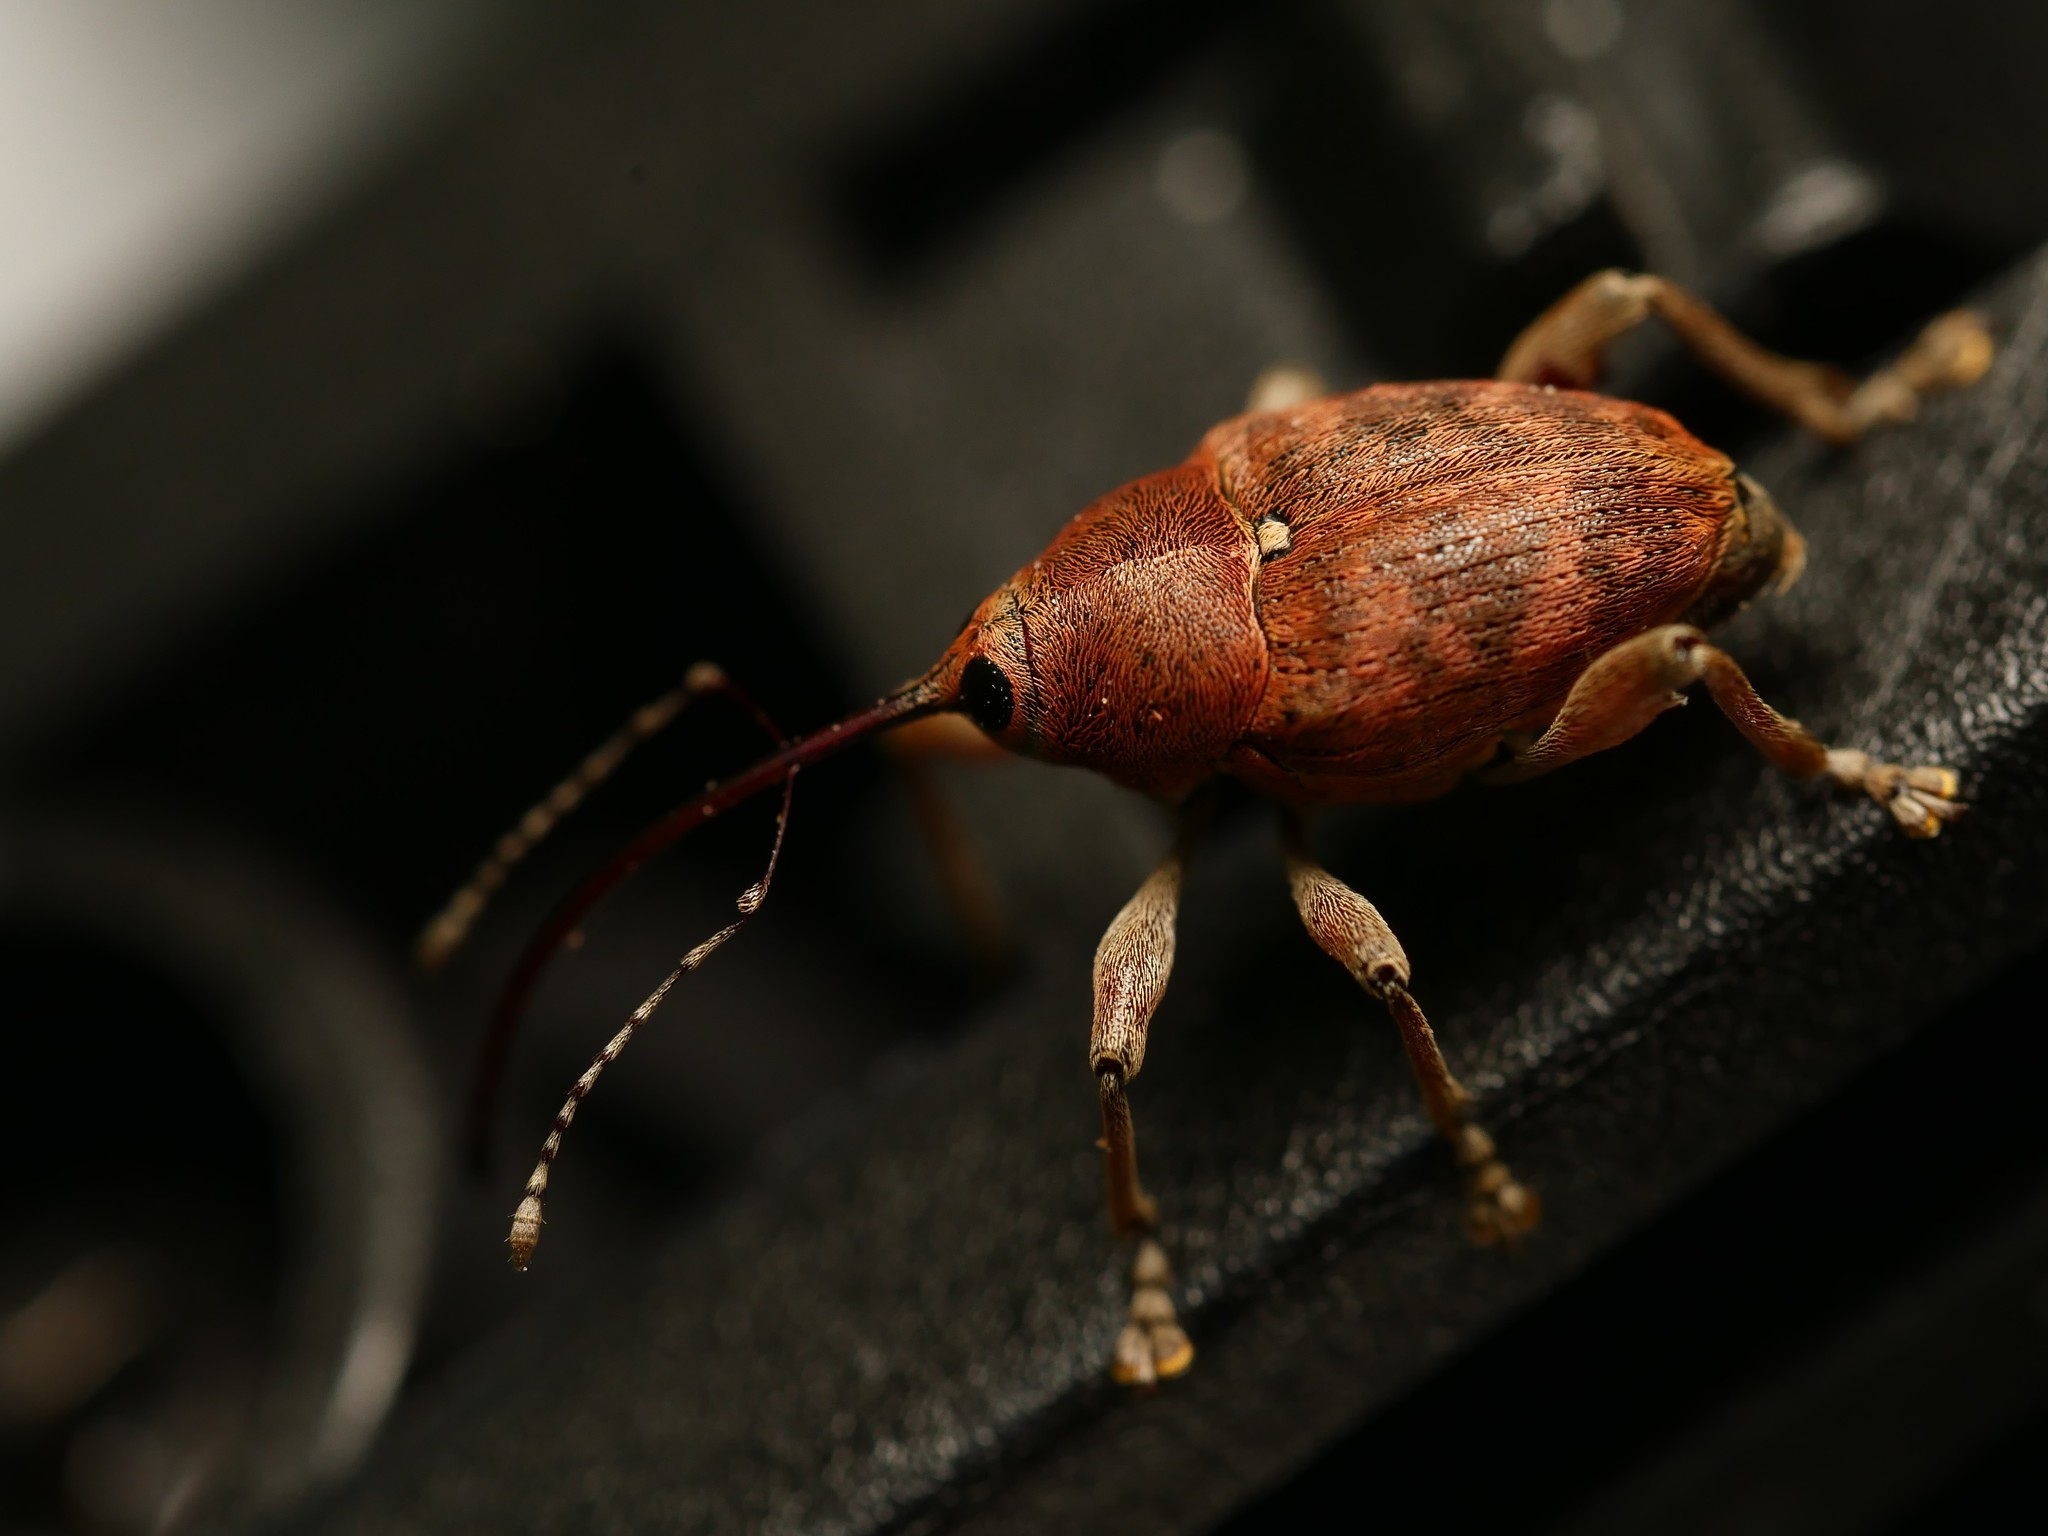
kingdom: Animalia
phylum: Arthropoda
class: Insecta
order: Coleoptera
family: Curculionidae
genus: Curculio
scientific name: Curculio glandium
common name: Acorn weevil
